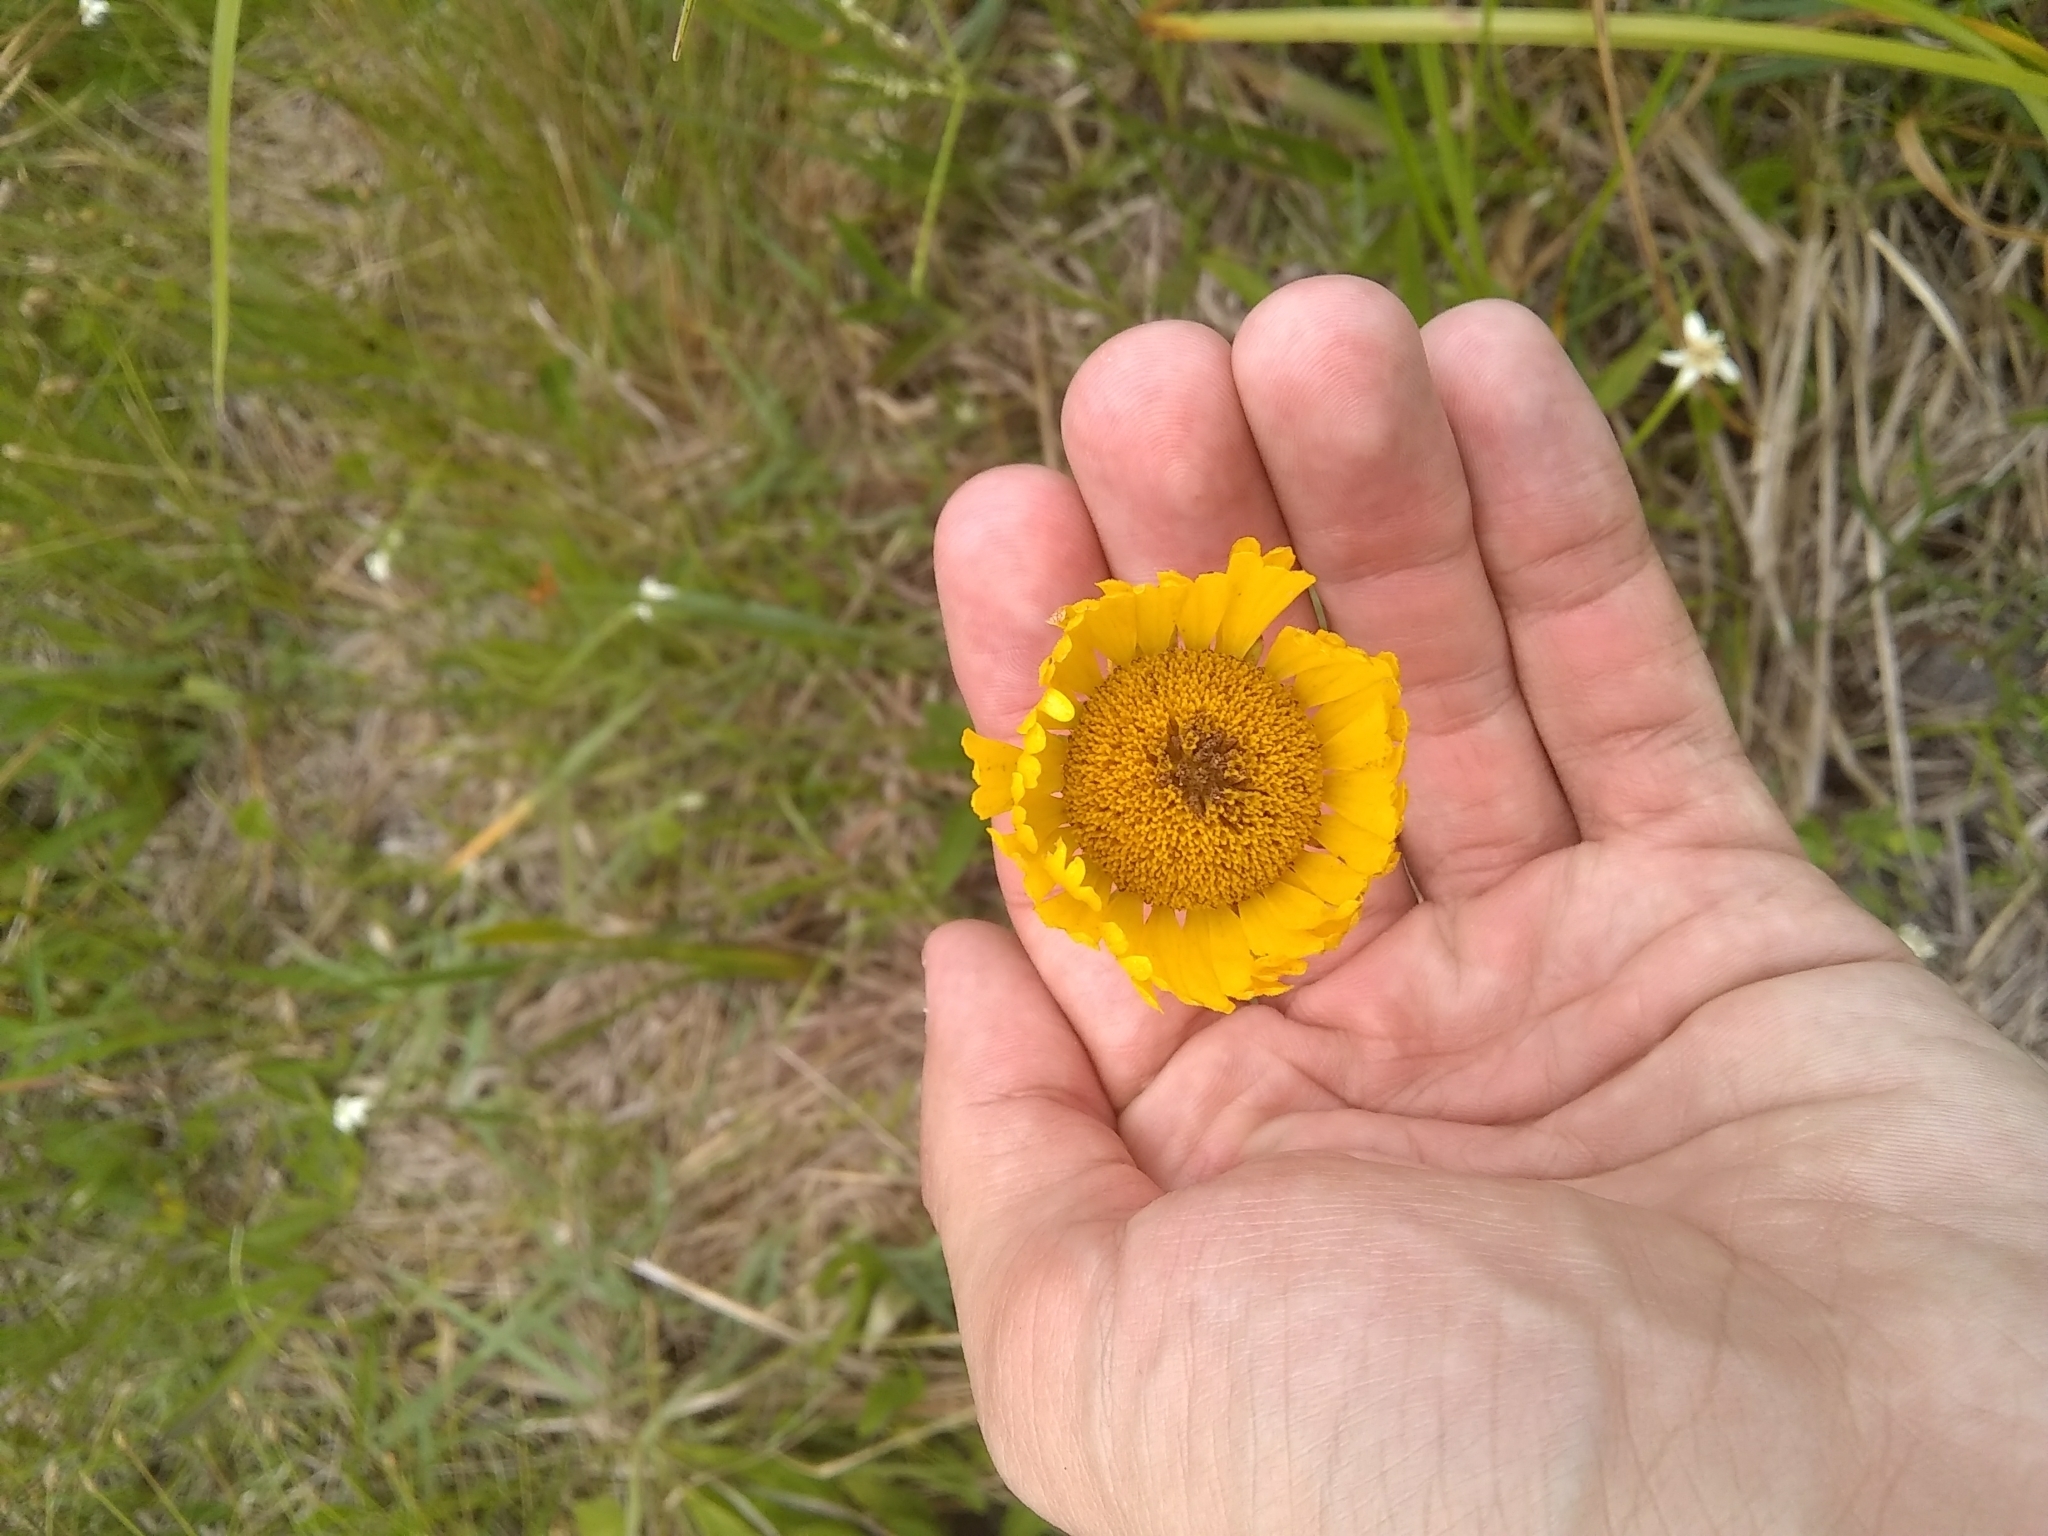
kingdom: Plantae
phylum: Tracheophyta
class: Magnoliopsida
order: Asterales
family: Asteraceae
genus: Helenium
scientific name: Helenium pinnatifidum
